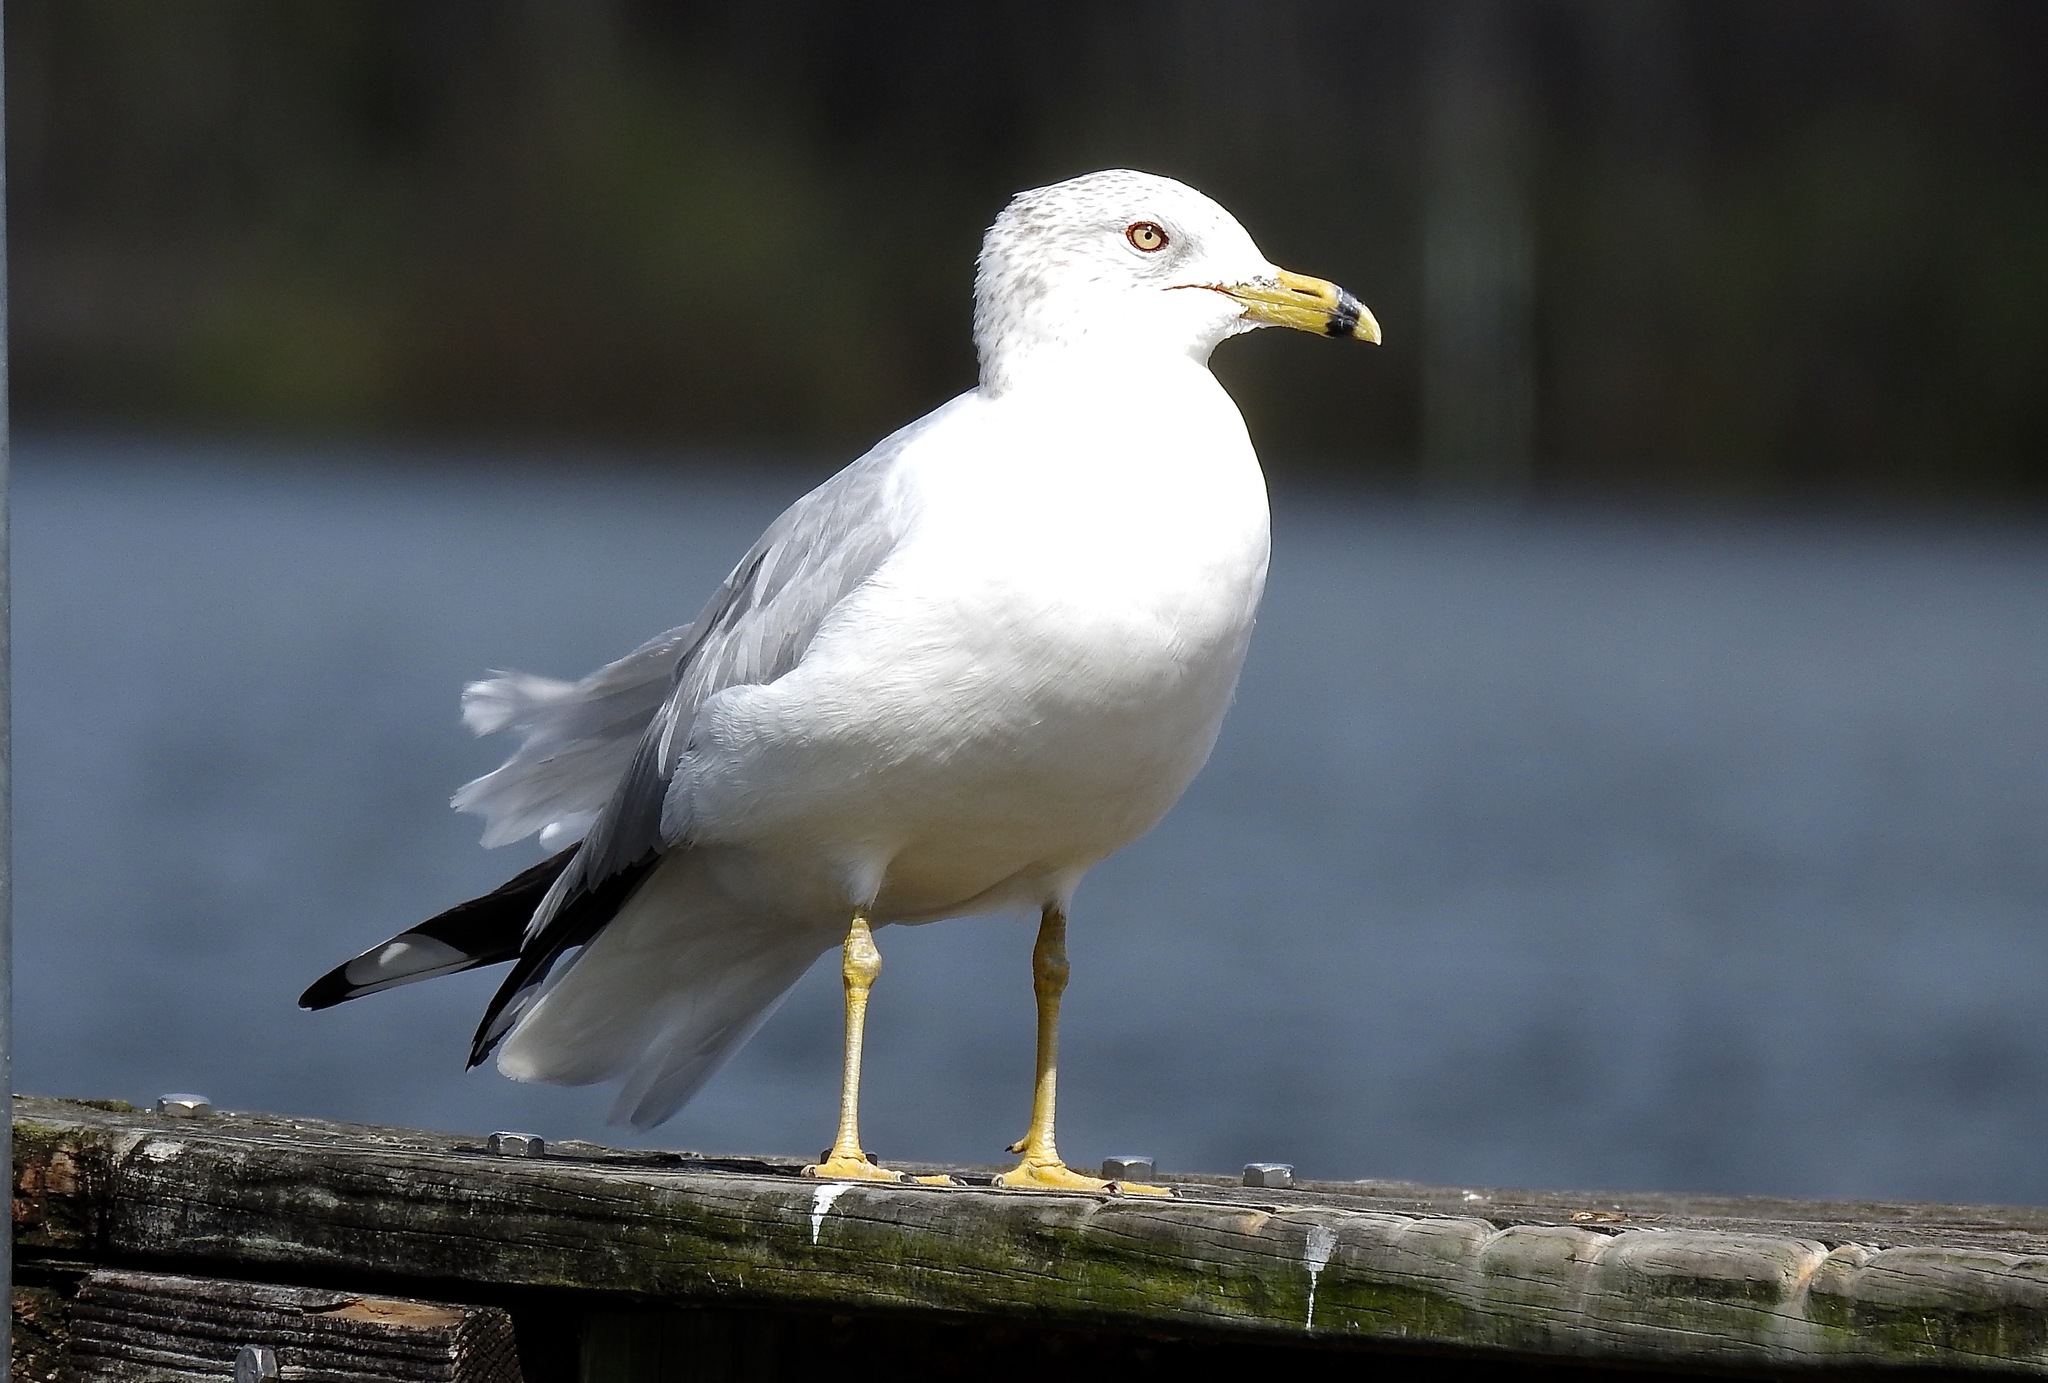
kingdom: Animalia
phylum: Chordata
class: Aves
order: Charadriiformes
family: Laridae
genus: Larus
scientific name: Larus delawarensis
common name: Ring-billed gull
